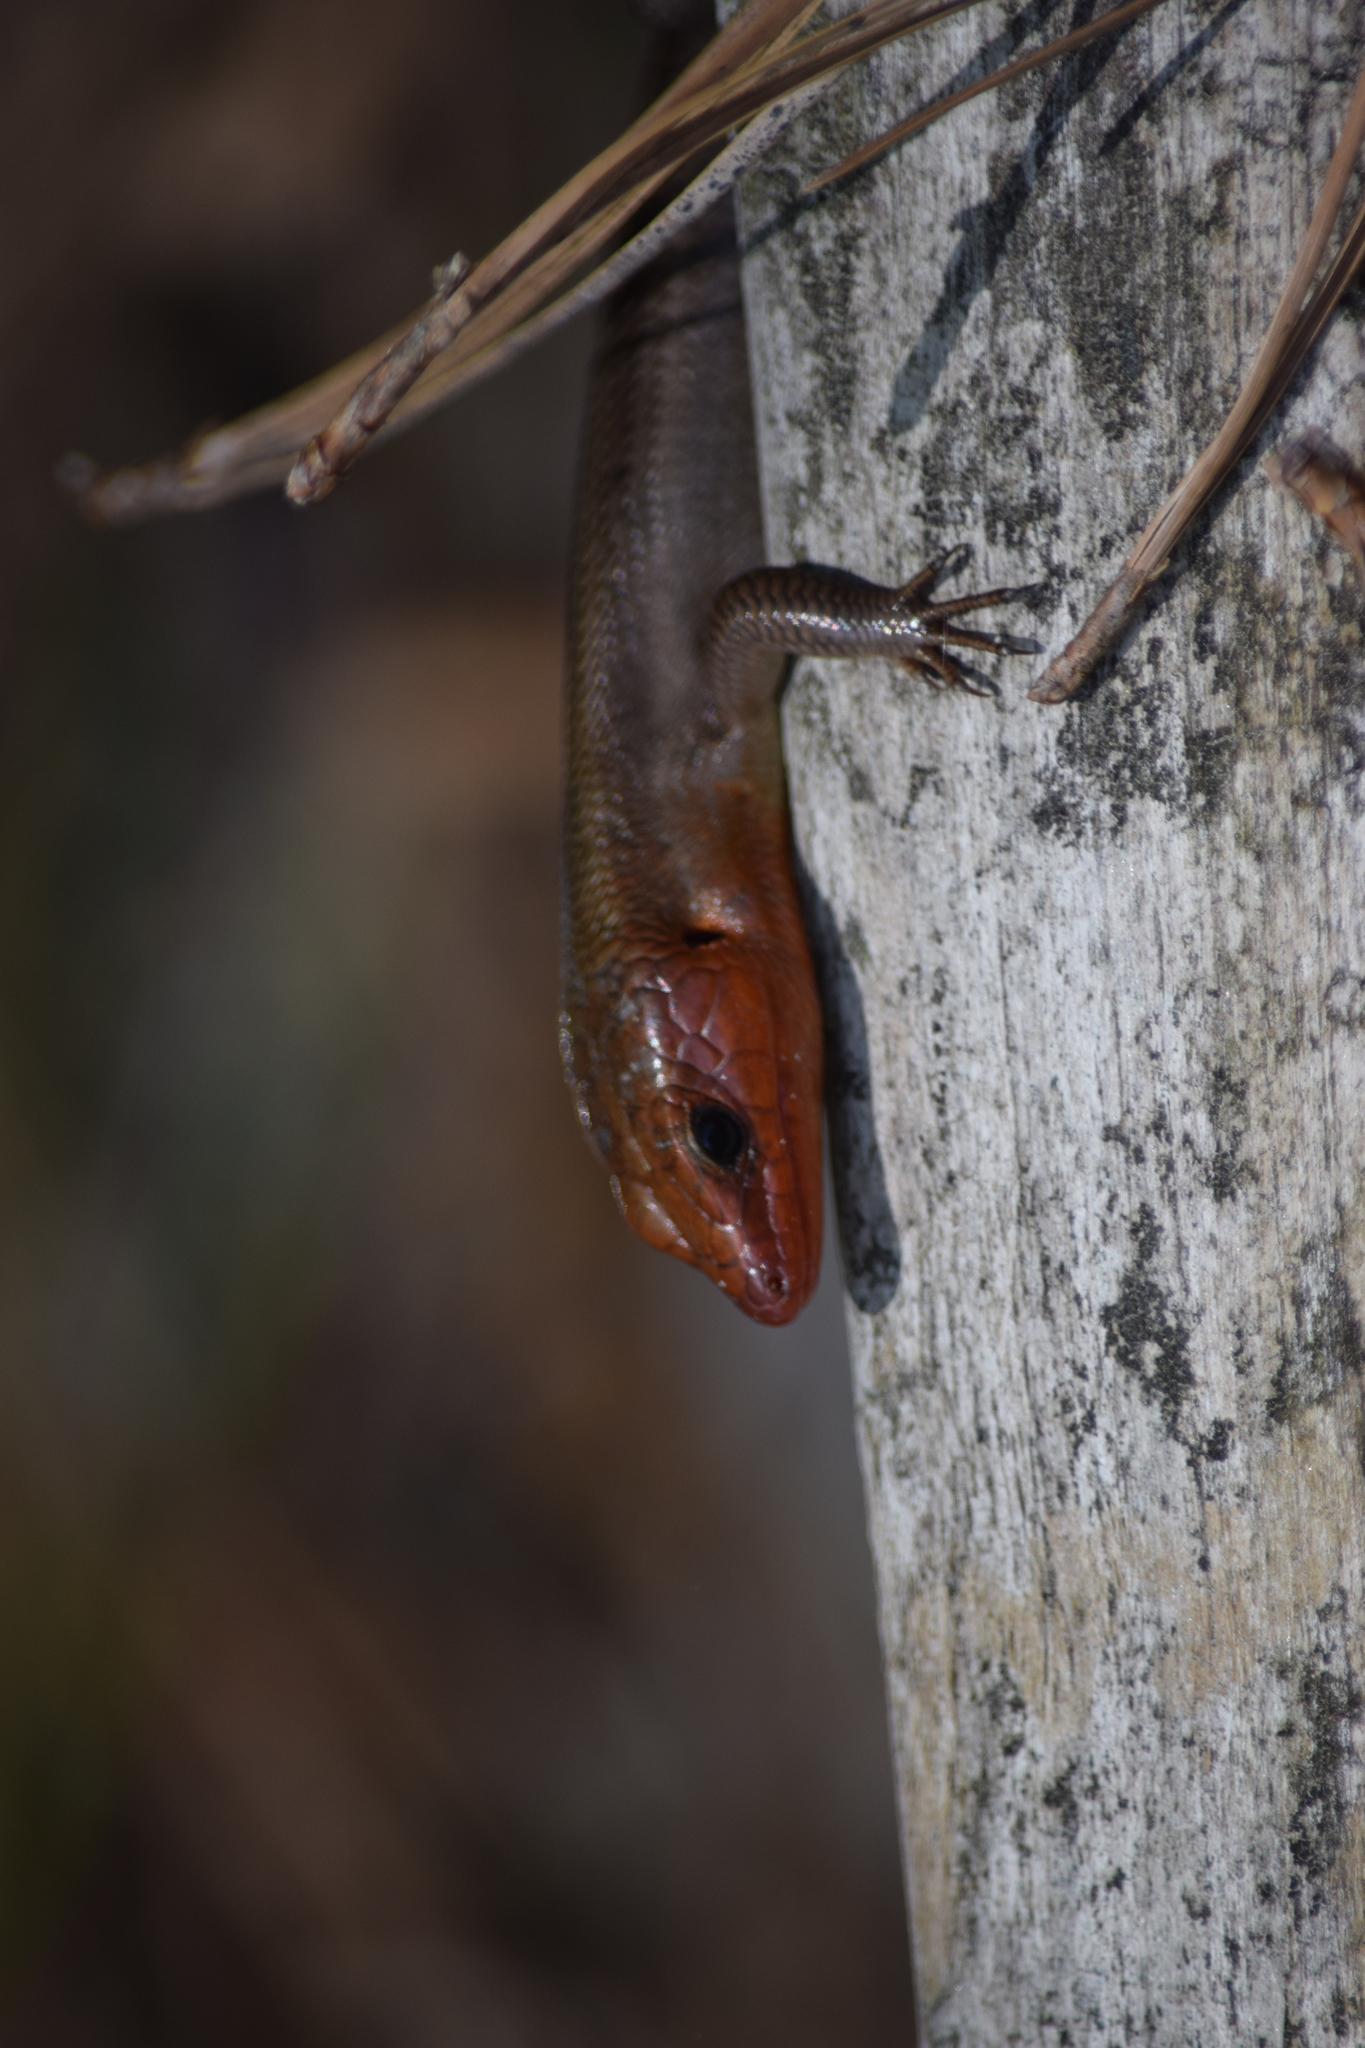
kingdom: Animalia
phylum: Chordata
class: Squamata
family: Scincidae
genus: Plestiodon
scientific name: Plestiodon fasciatus
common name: Five-lined skink
